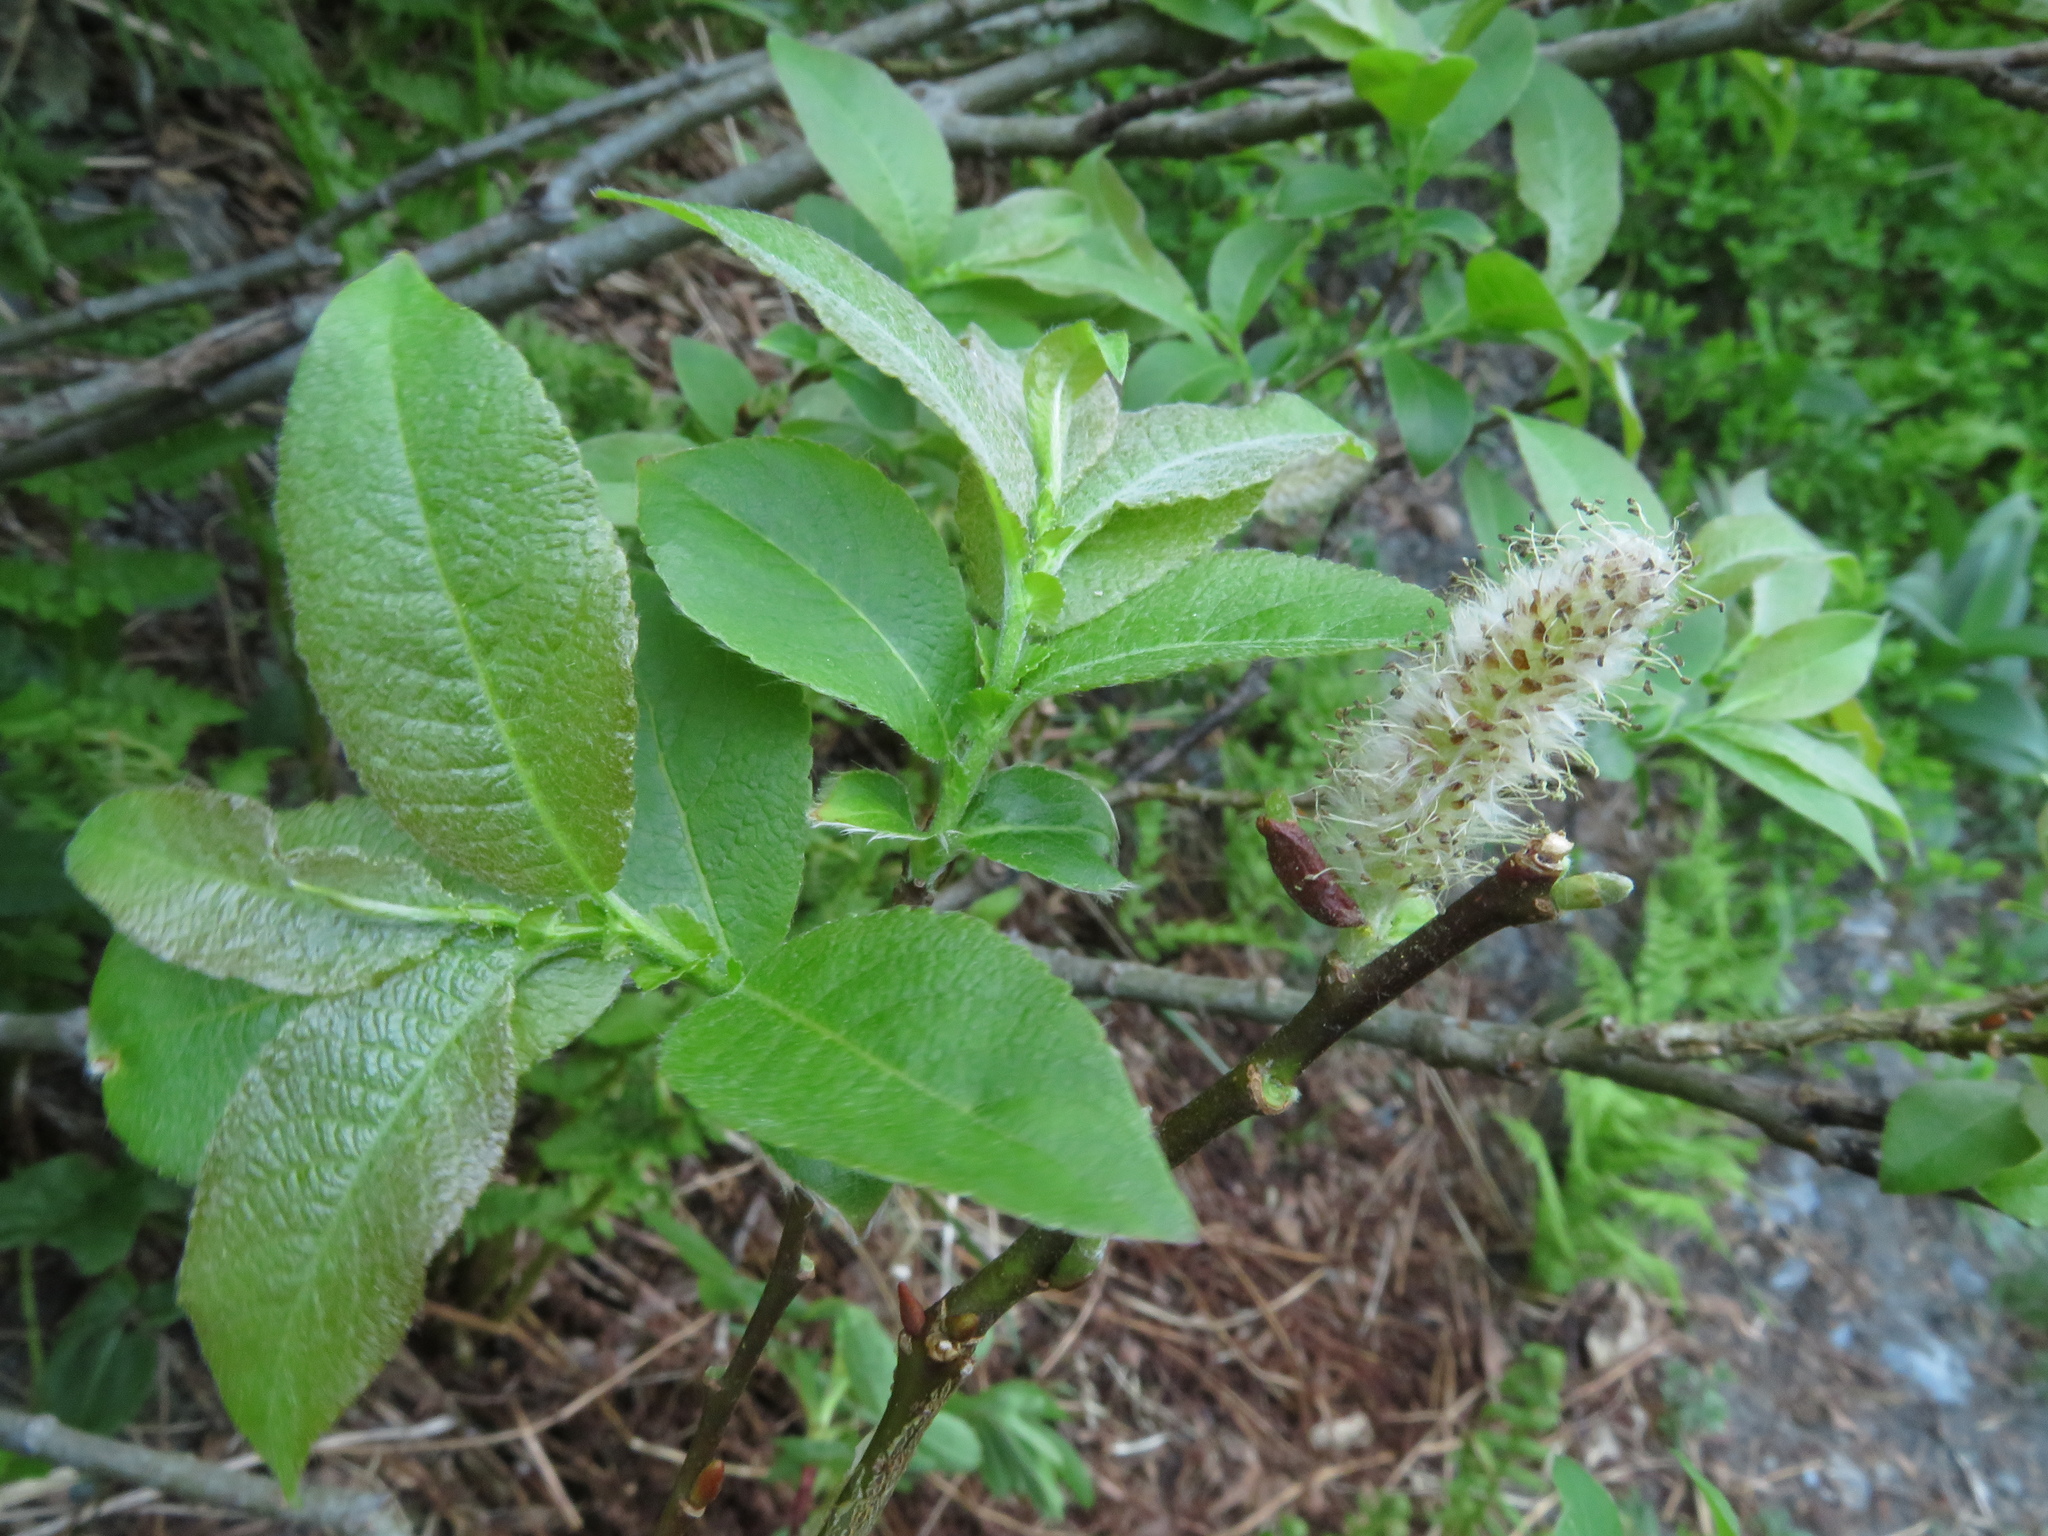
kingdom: Plantae
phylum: Tracheophyta
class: Magnoliopsida
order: Malpighiales
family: Salicaceae
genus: Salix
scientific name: Salix silesiaca
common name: Silesian willow
